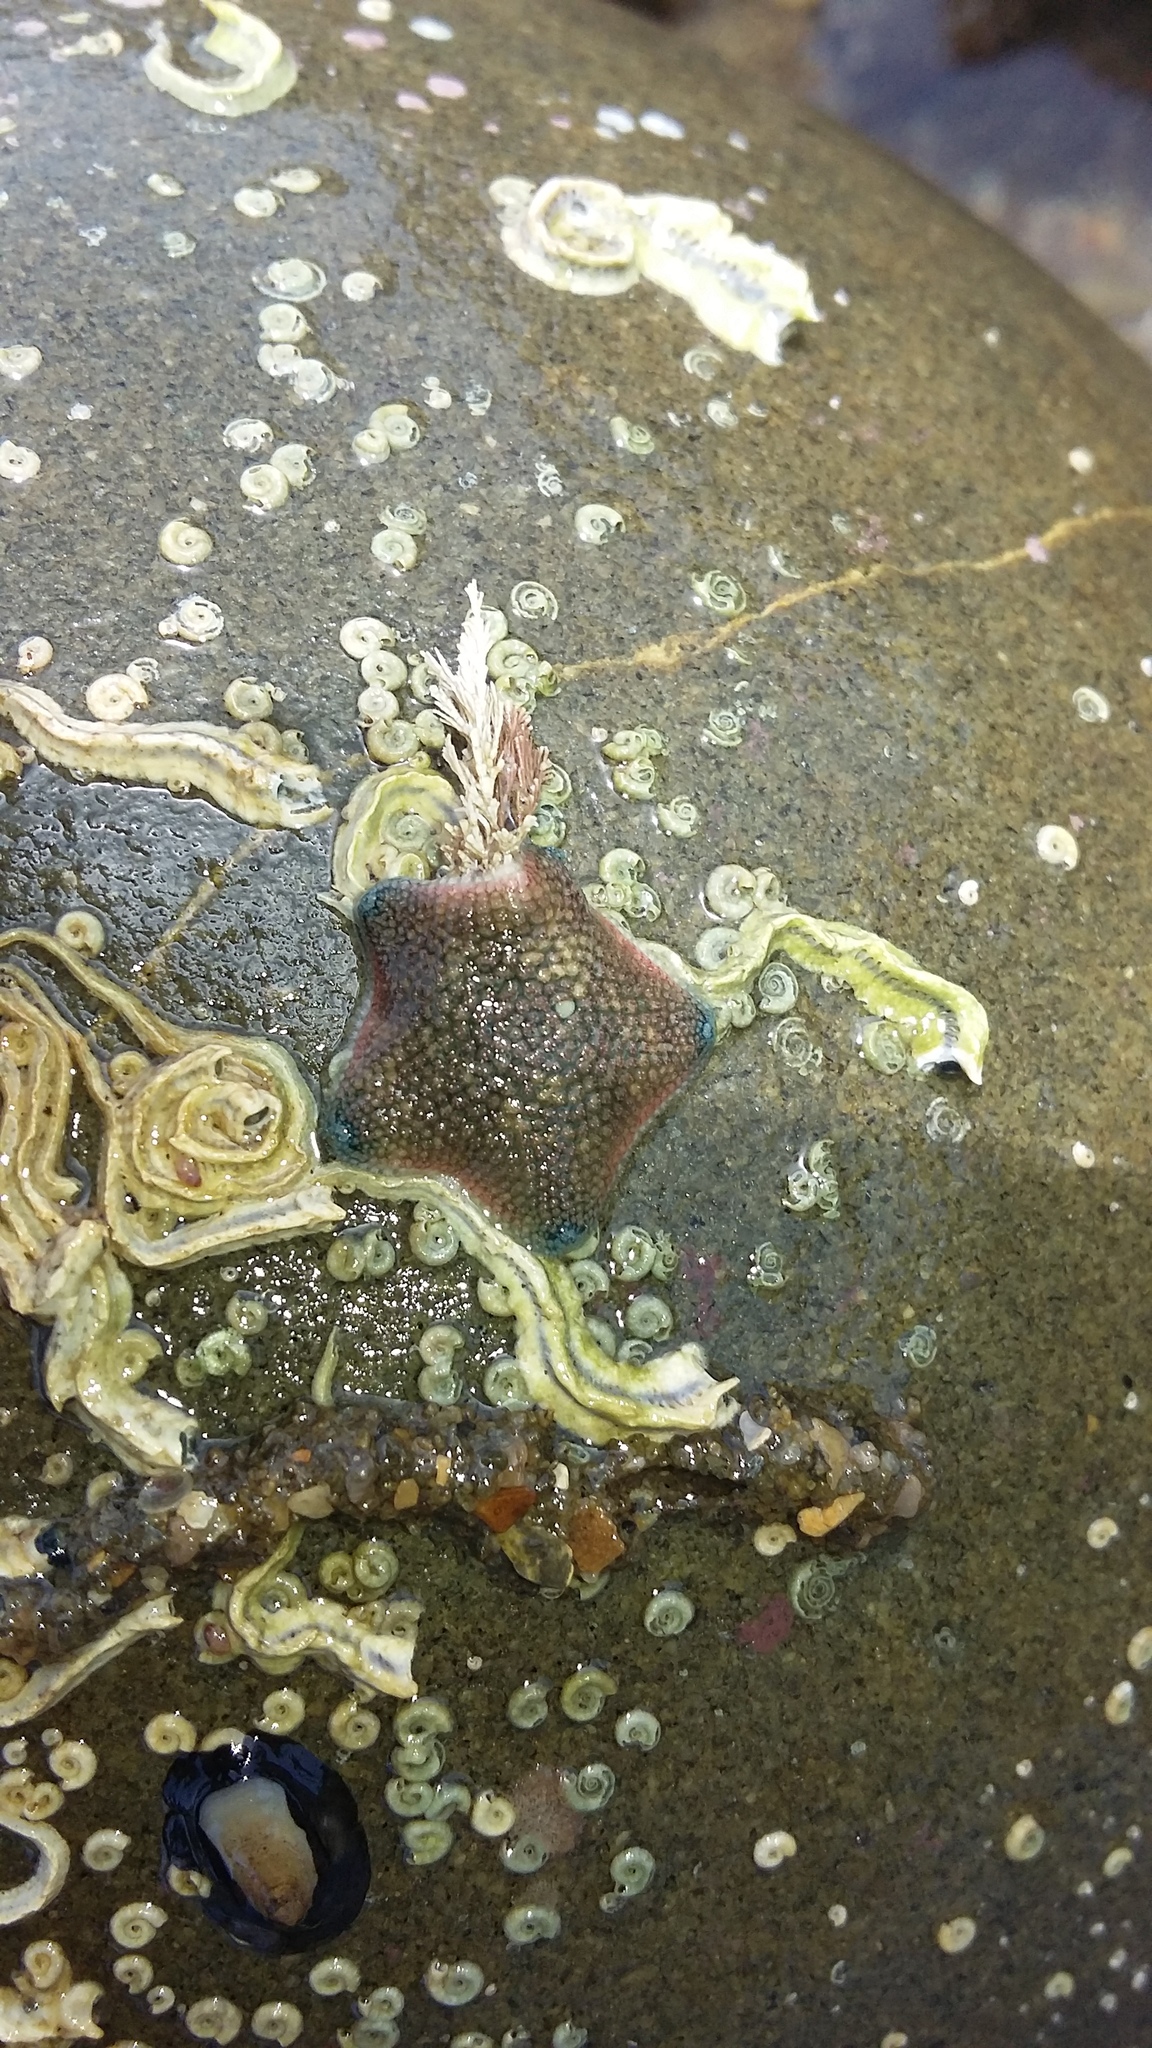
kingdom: Animalia
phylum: Echinodermata
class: Asteroidea
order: Valvatida
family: Asterinidae
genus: Patiriella
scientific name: Patiriella regularis
